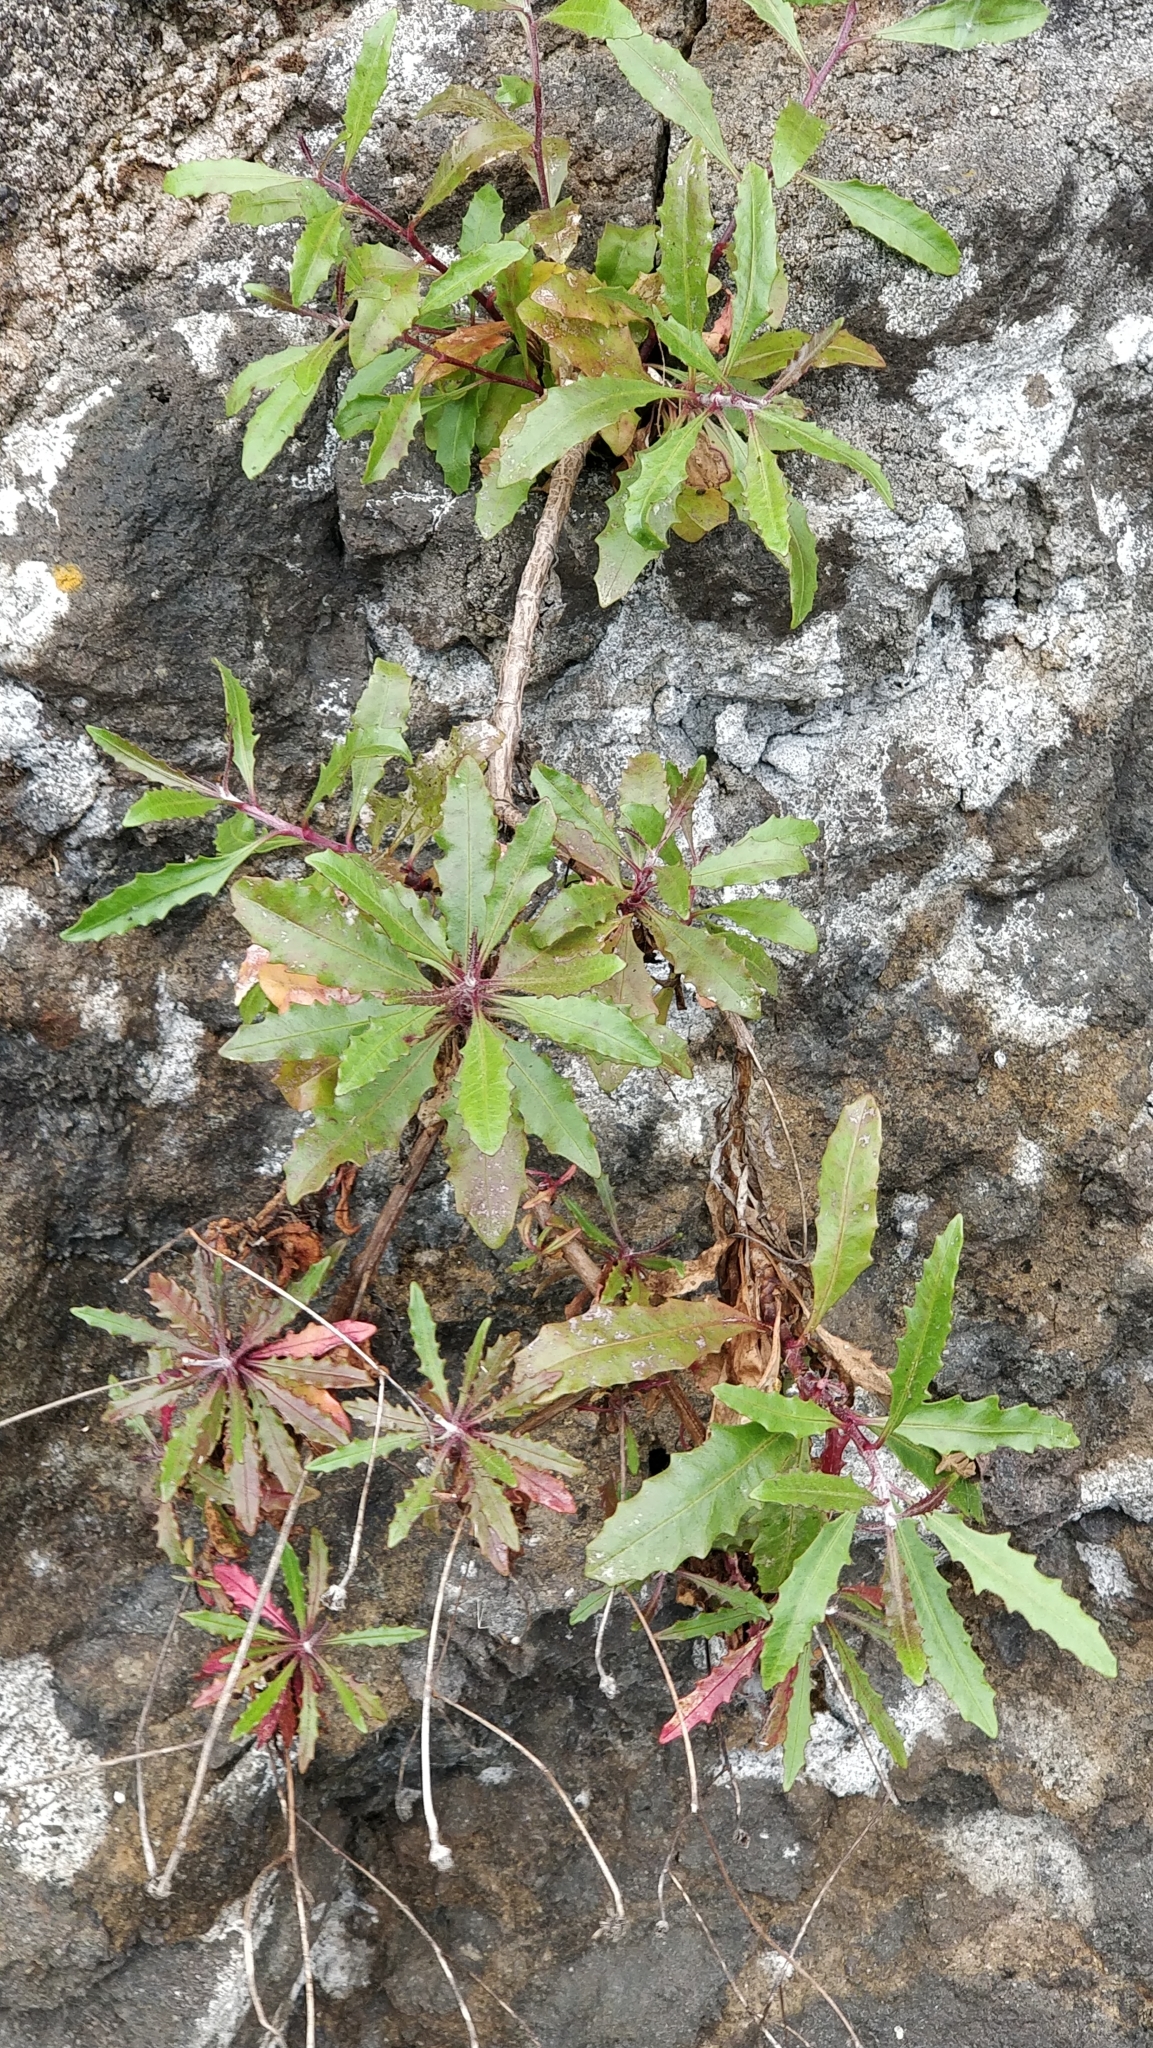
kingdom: Plantae
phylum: Tracheophyta
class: Magnoliopsida
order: Asterales
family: Asteraceae
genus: Tolpis
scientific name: Tolpis succulenta
